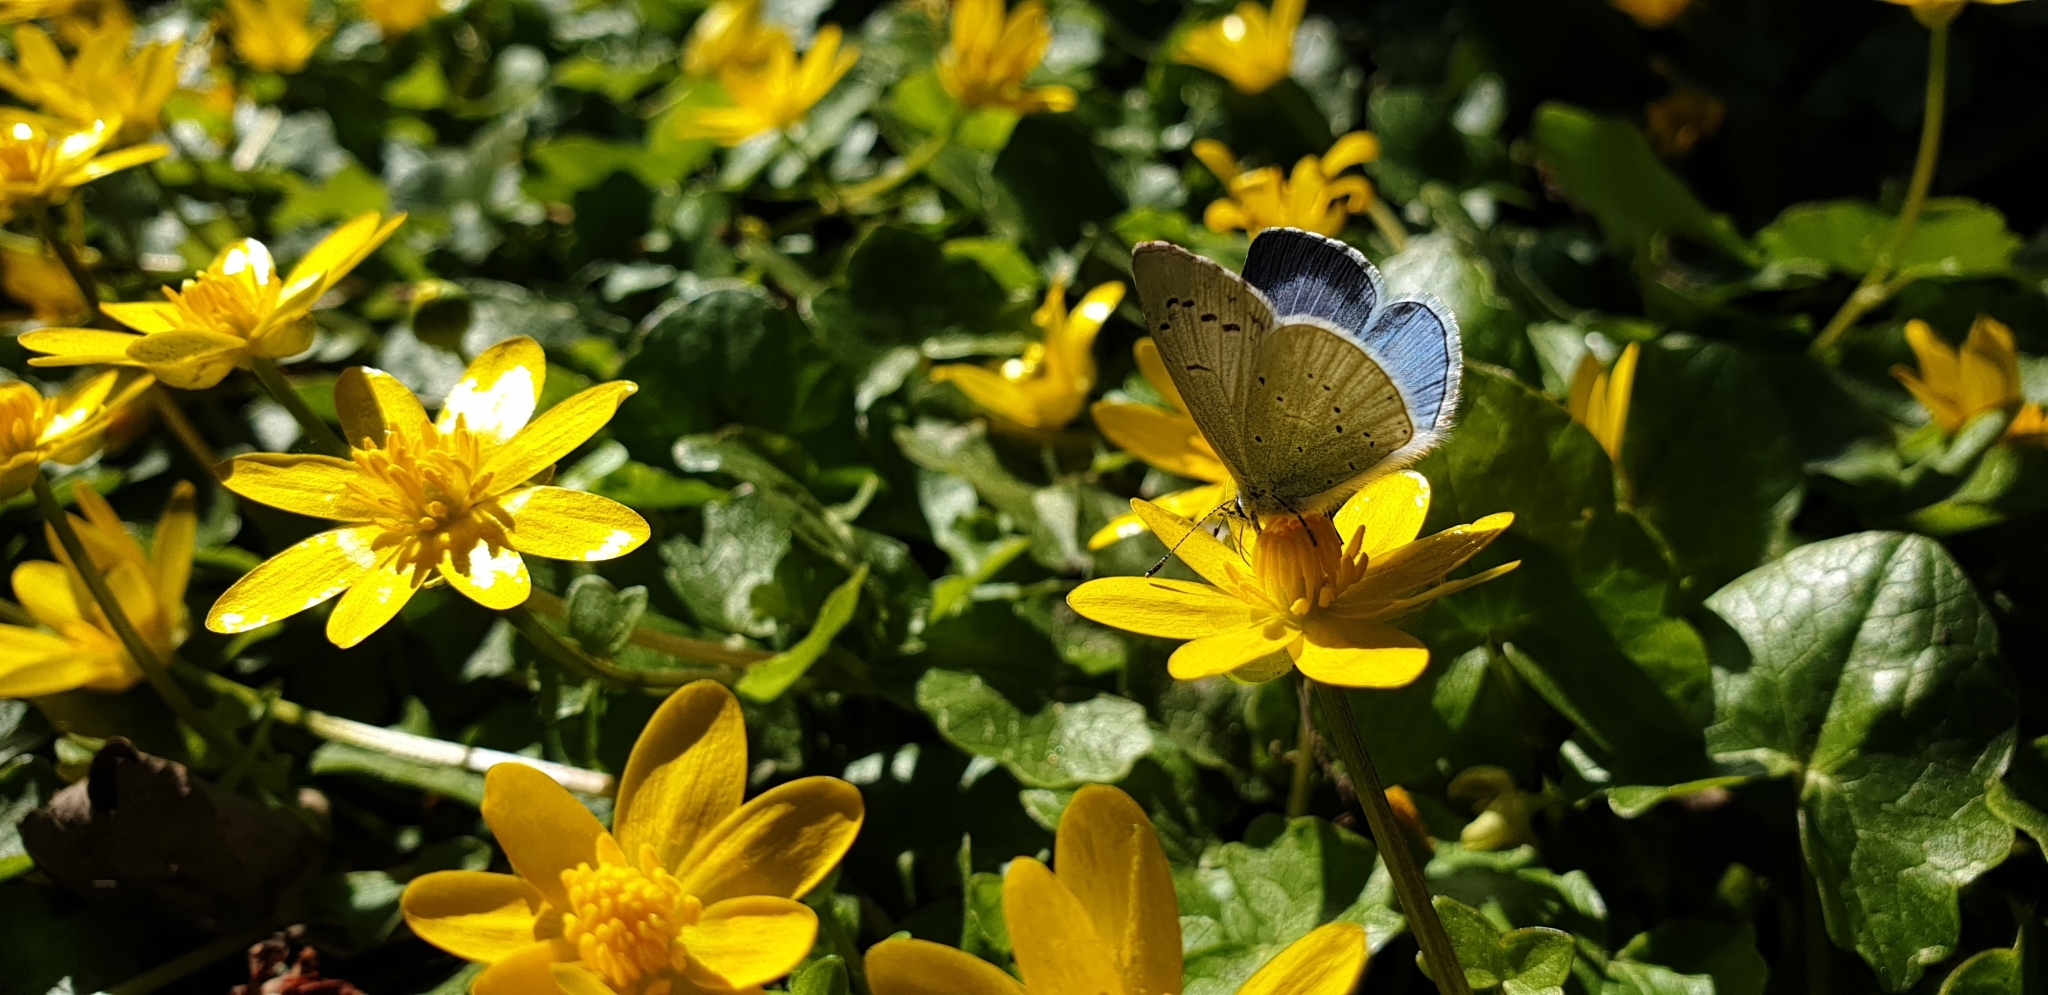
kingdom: Animalia
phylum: Arthropoda
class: Insecta
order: Lepidoptera
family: Lycaenidae
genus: Celastrina
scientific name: Celastrina argiolus
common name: Holly blue
